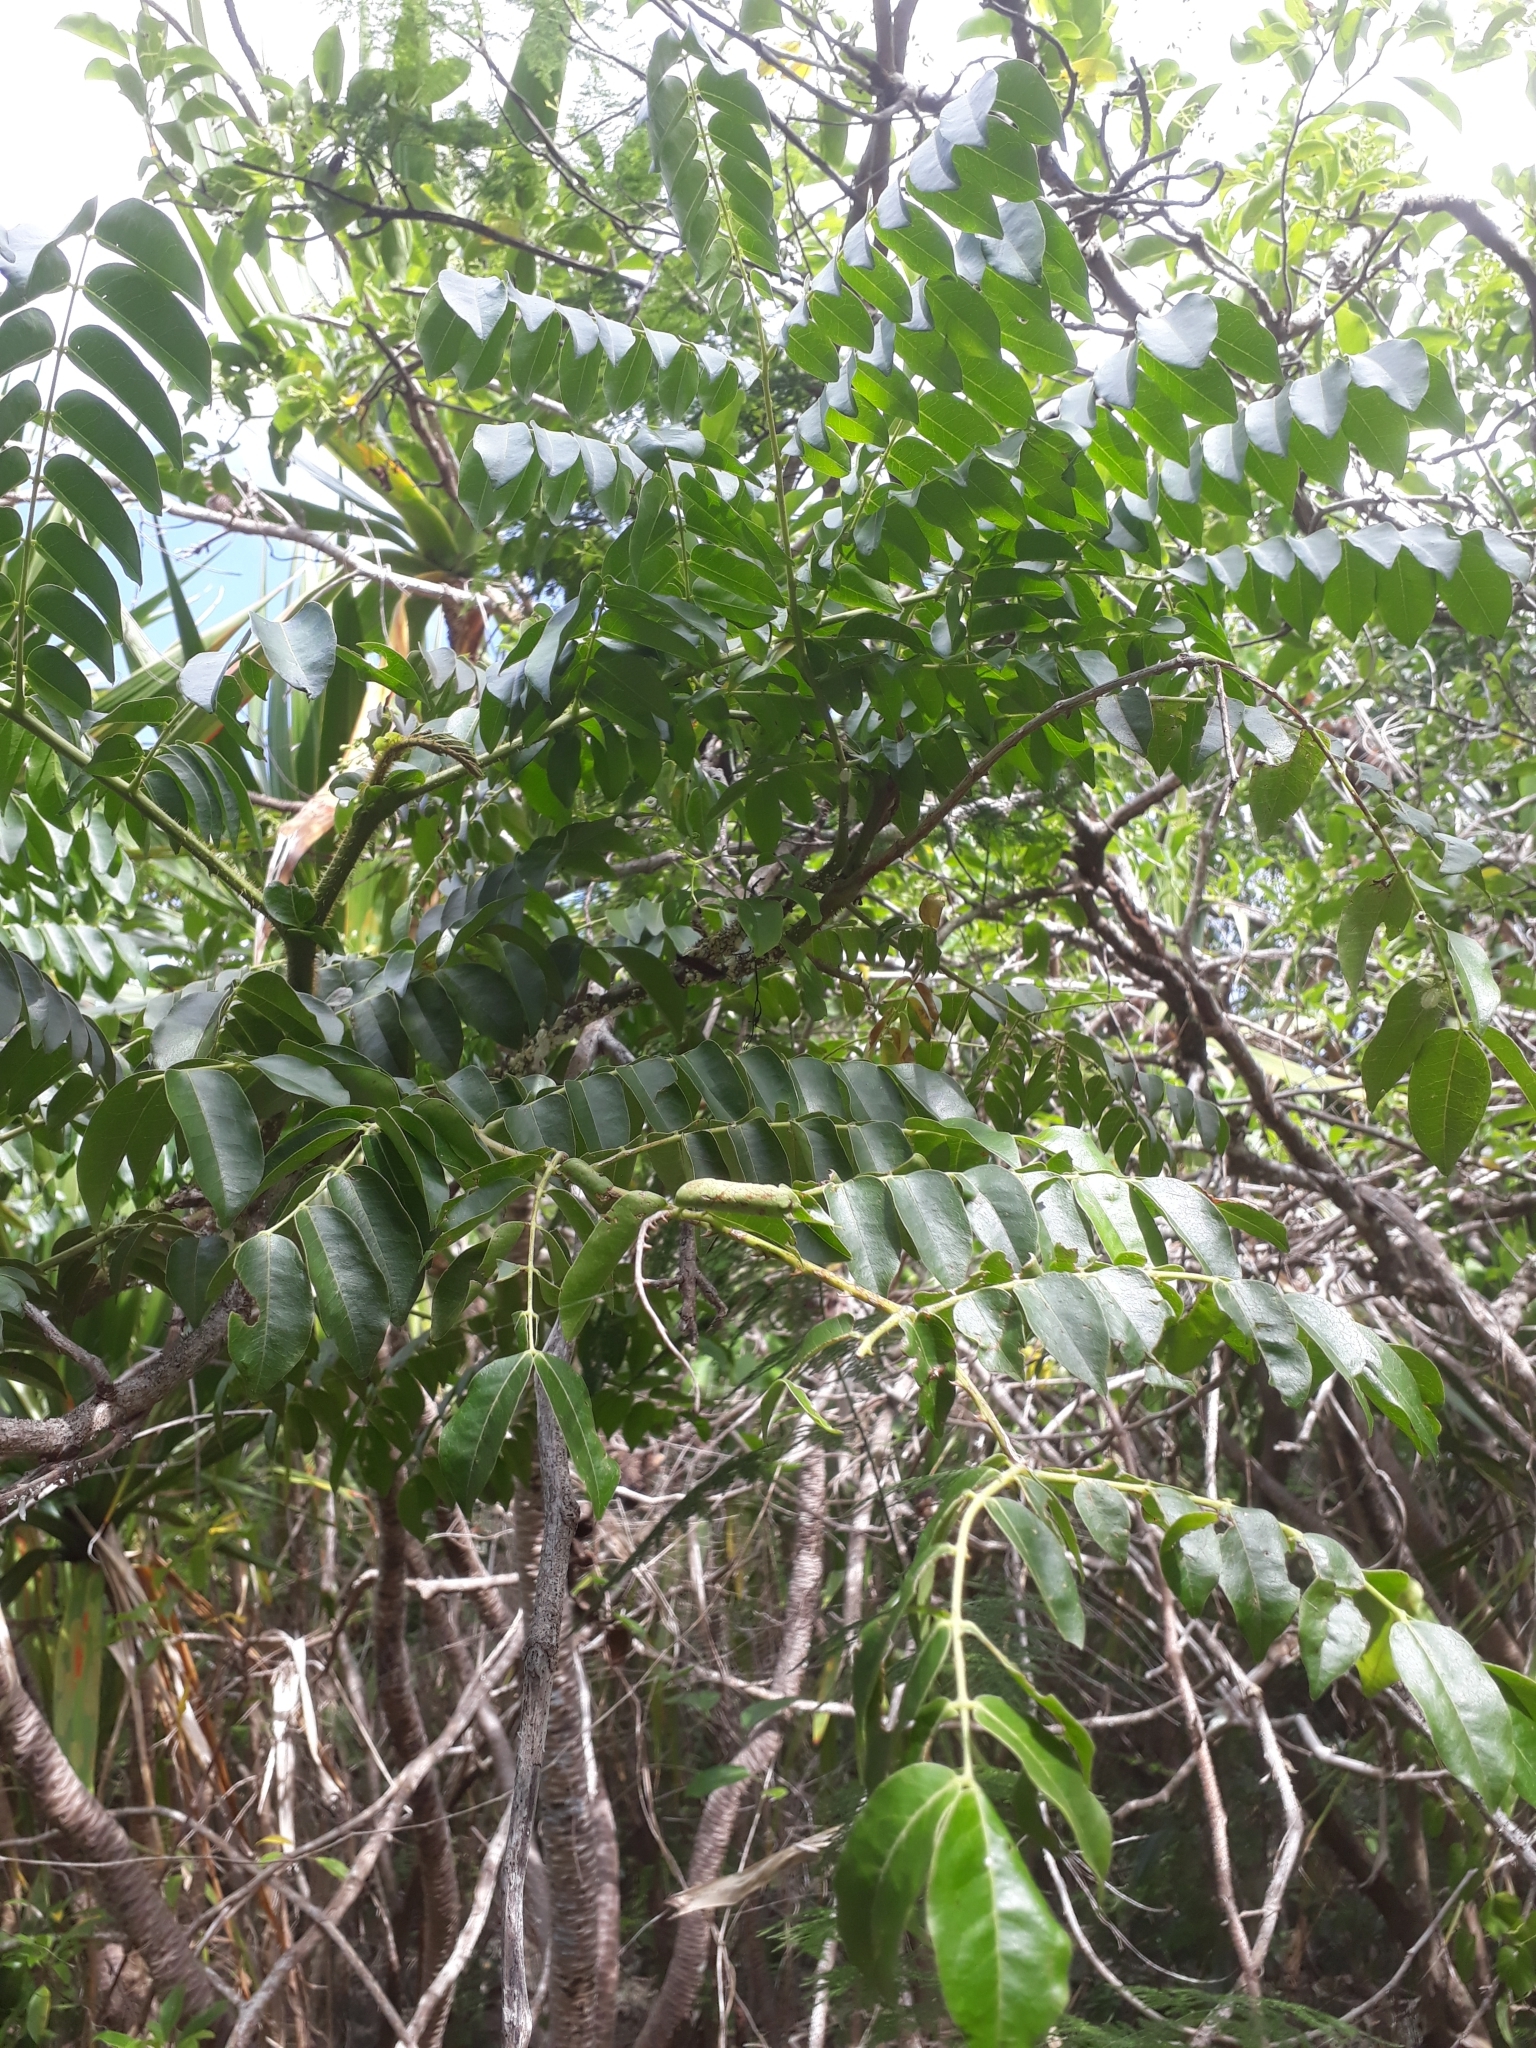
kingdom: Plantae
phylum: Tracheophyta
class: Magnoliopsida
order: Fabales
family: Fabaceae
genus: Guilandina
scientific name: Guilandina bonduc
